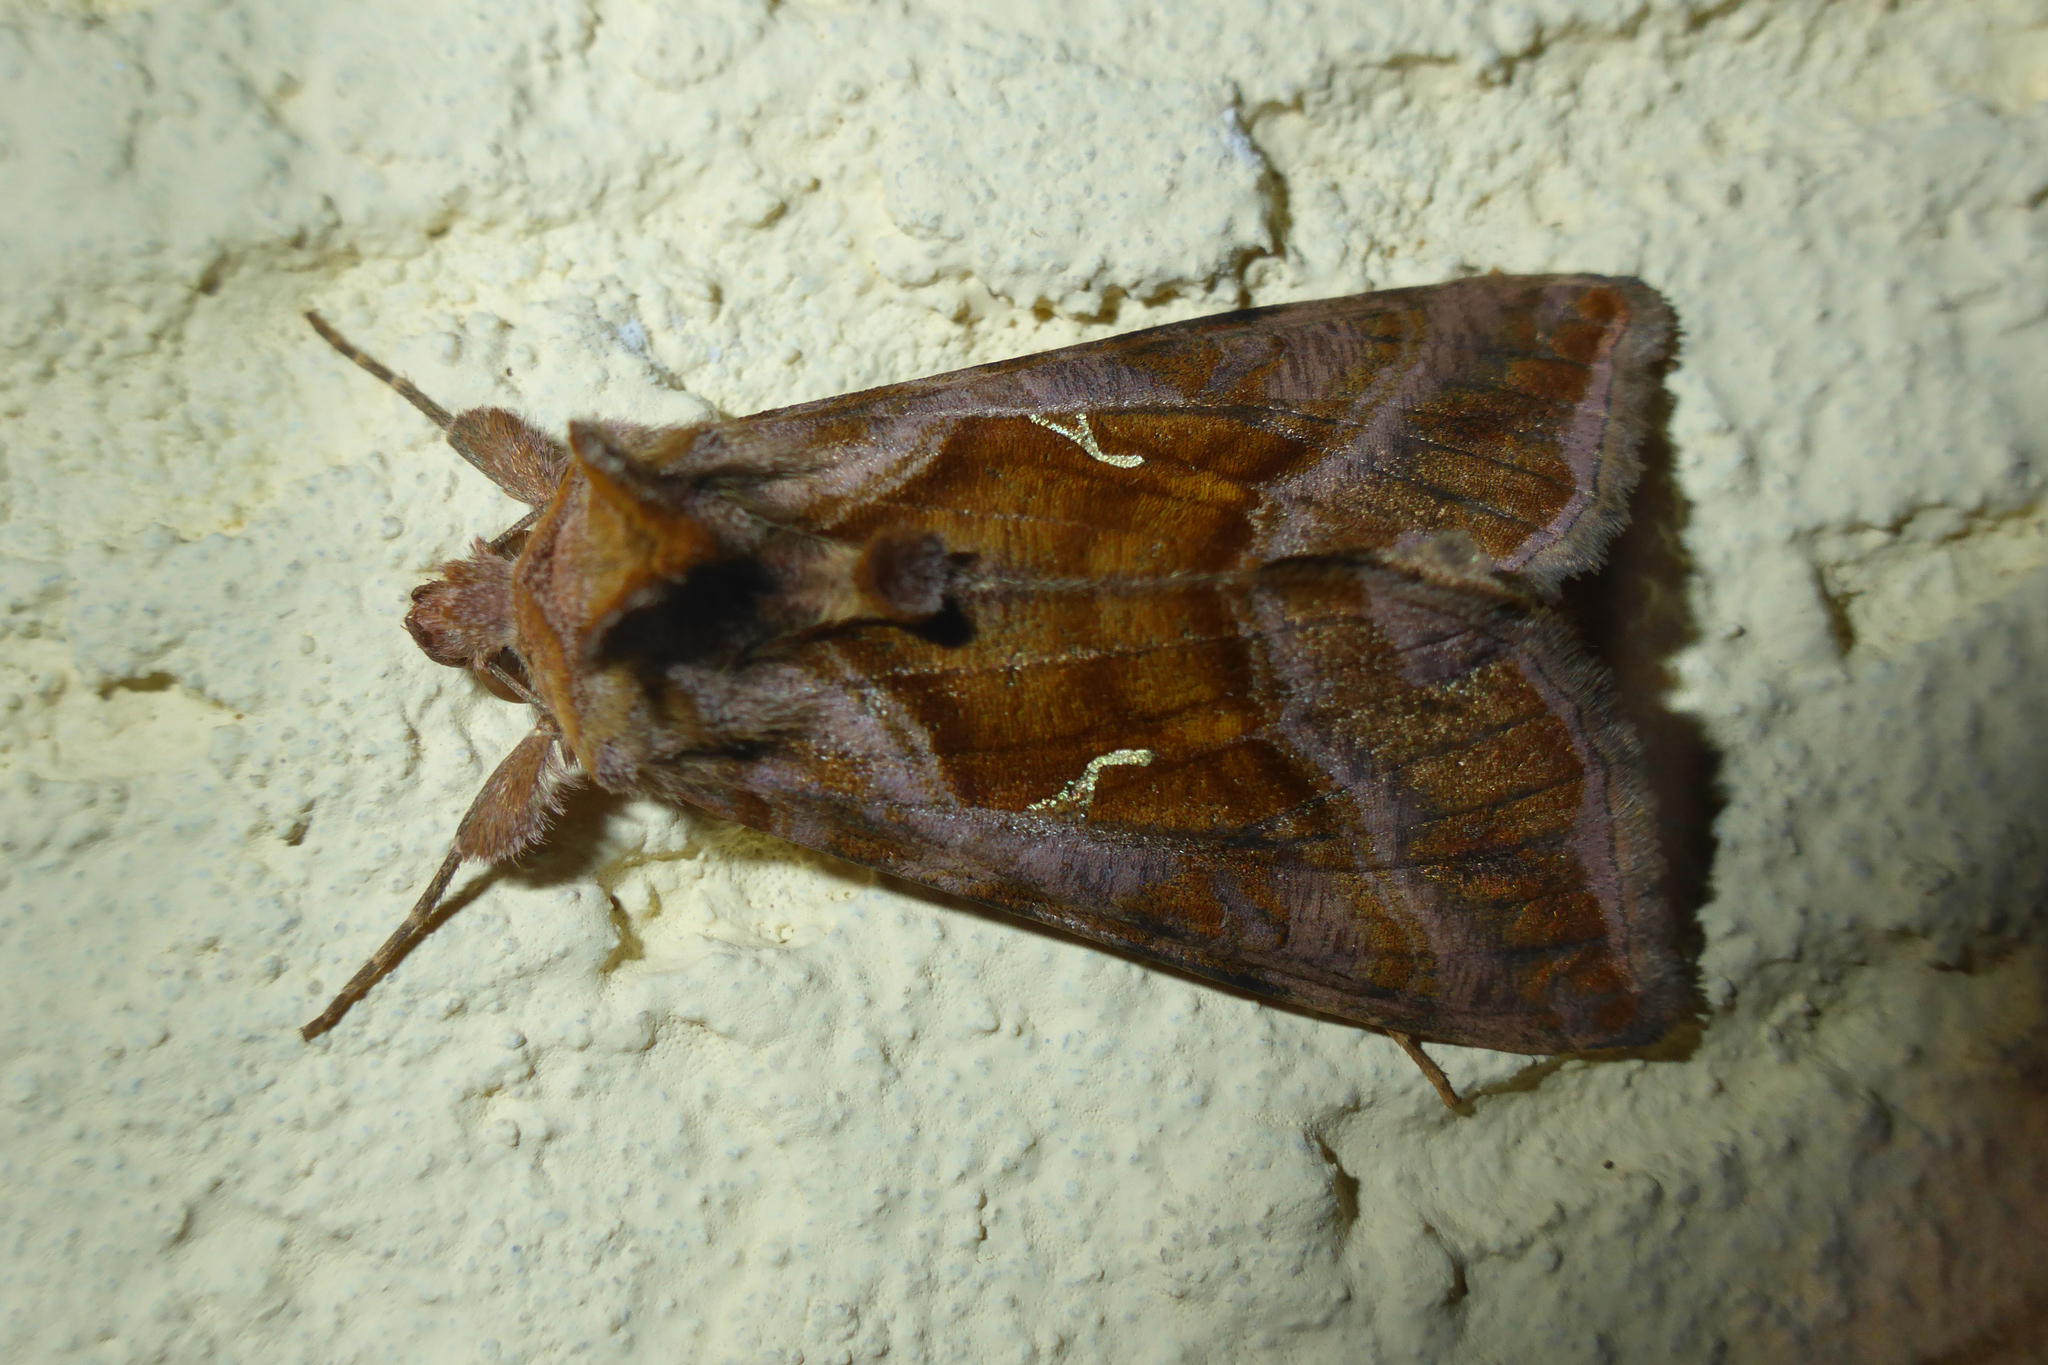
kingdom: Animalia
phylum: Arthropoda
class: Insecta
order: Lepidoptera
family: Noctuidae
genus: Autographa
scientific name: Autographa jota
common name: Plain golden y
